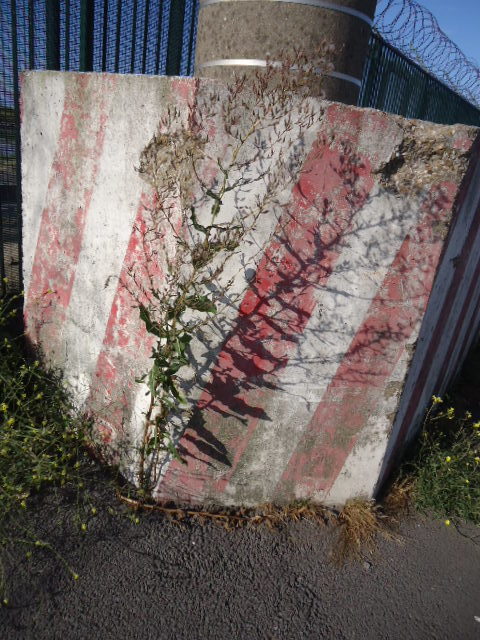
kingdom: Plantae
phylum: Tracheophyta
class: Magnoliopsida
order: Asterales
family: Asteraceae
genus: Lactuca
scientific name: Lactuca serriola
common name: Prickly lettuce
